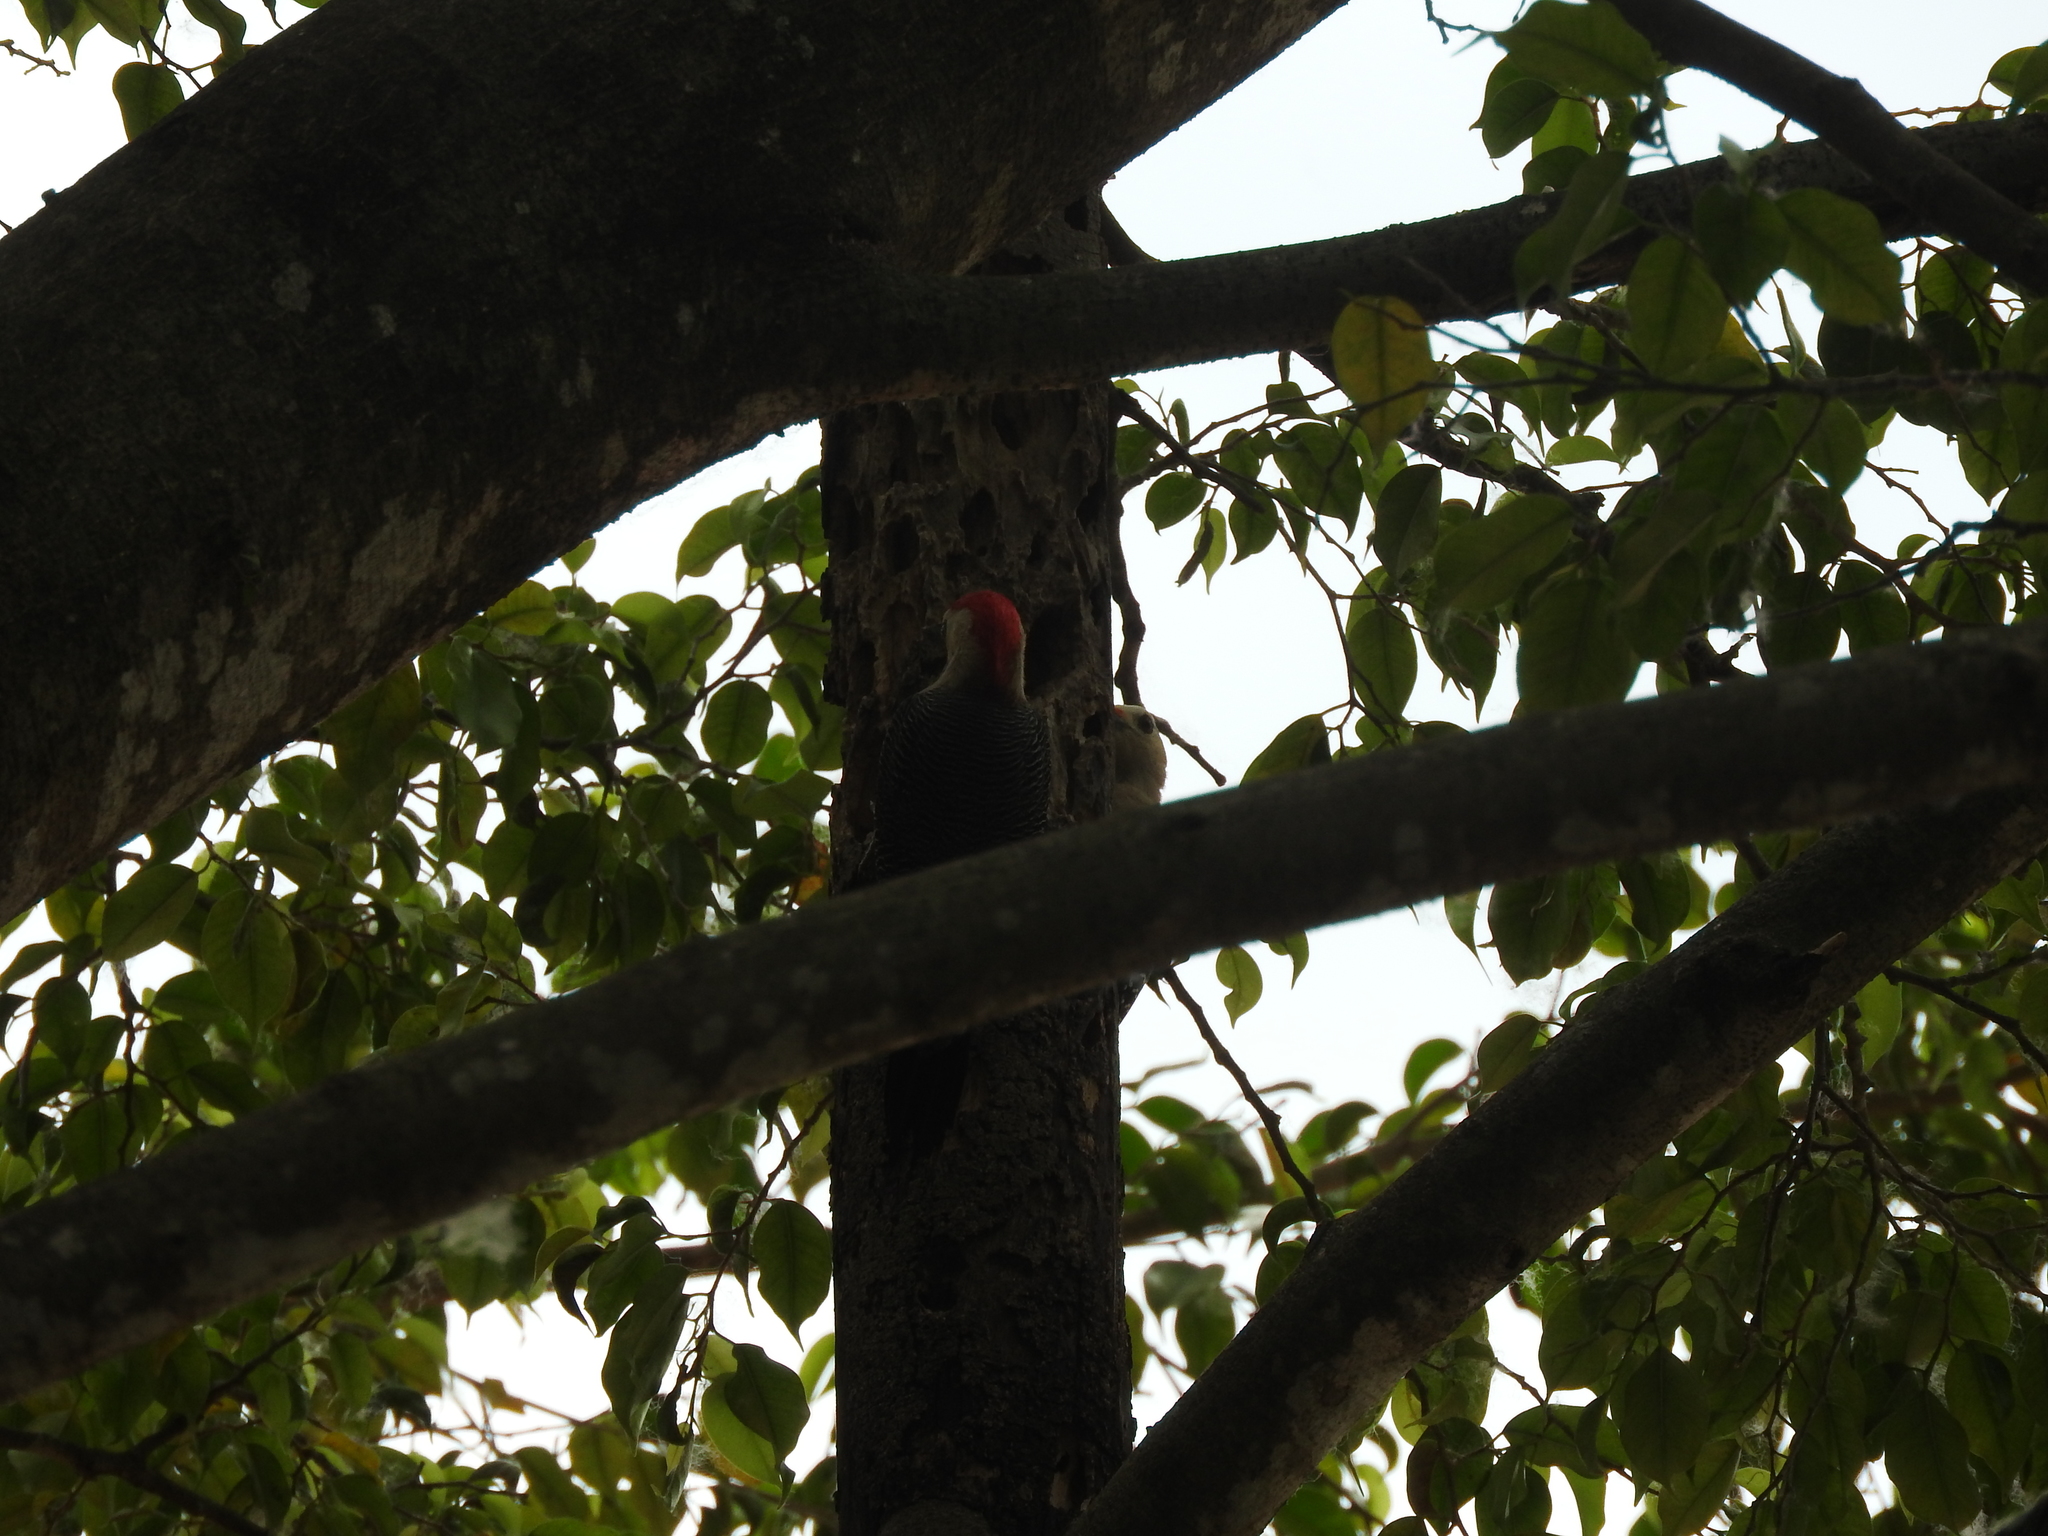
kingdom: Animalia
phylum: Chordata
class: Aves
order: Piciformes
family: Picidae
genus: Melanerpes
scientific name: Melanerpes santacruzi
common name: Velasquez's woodpecker
